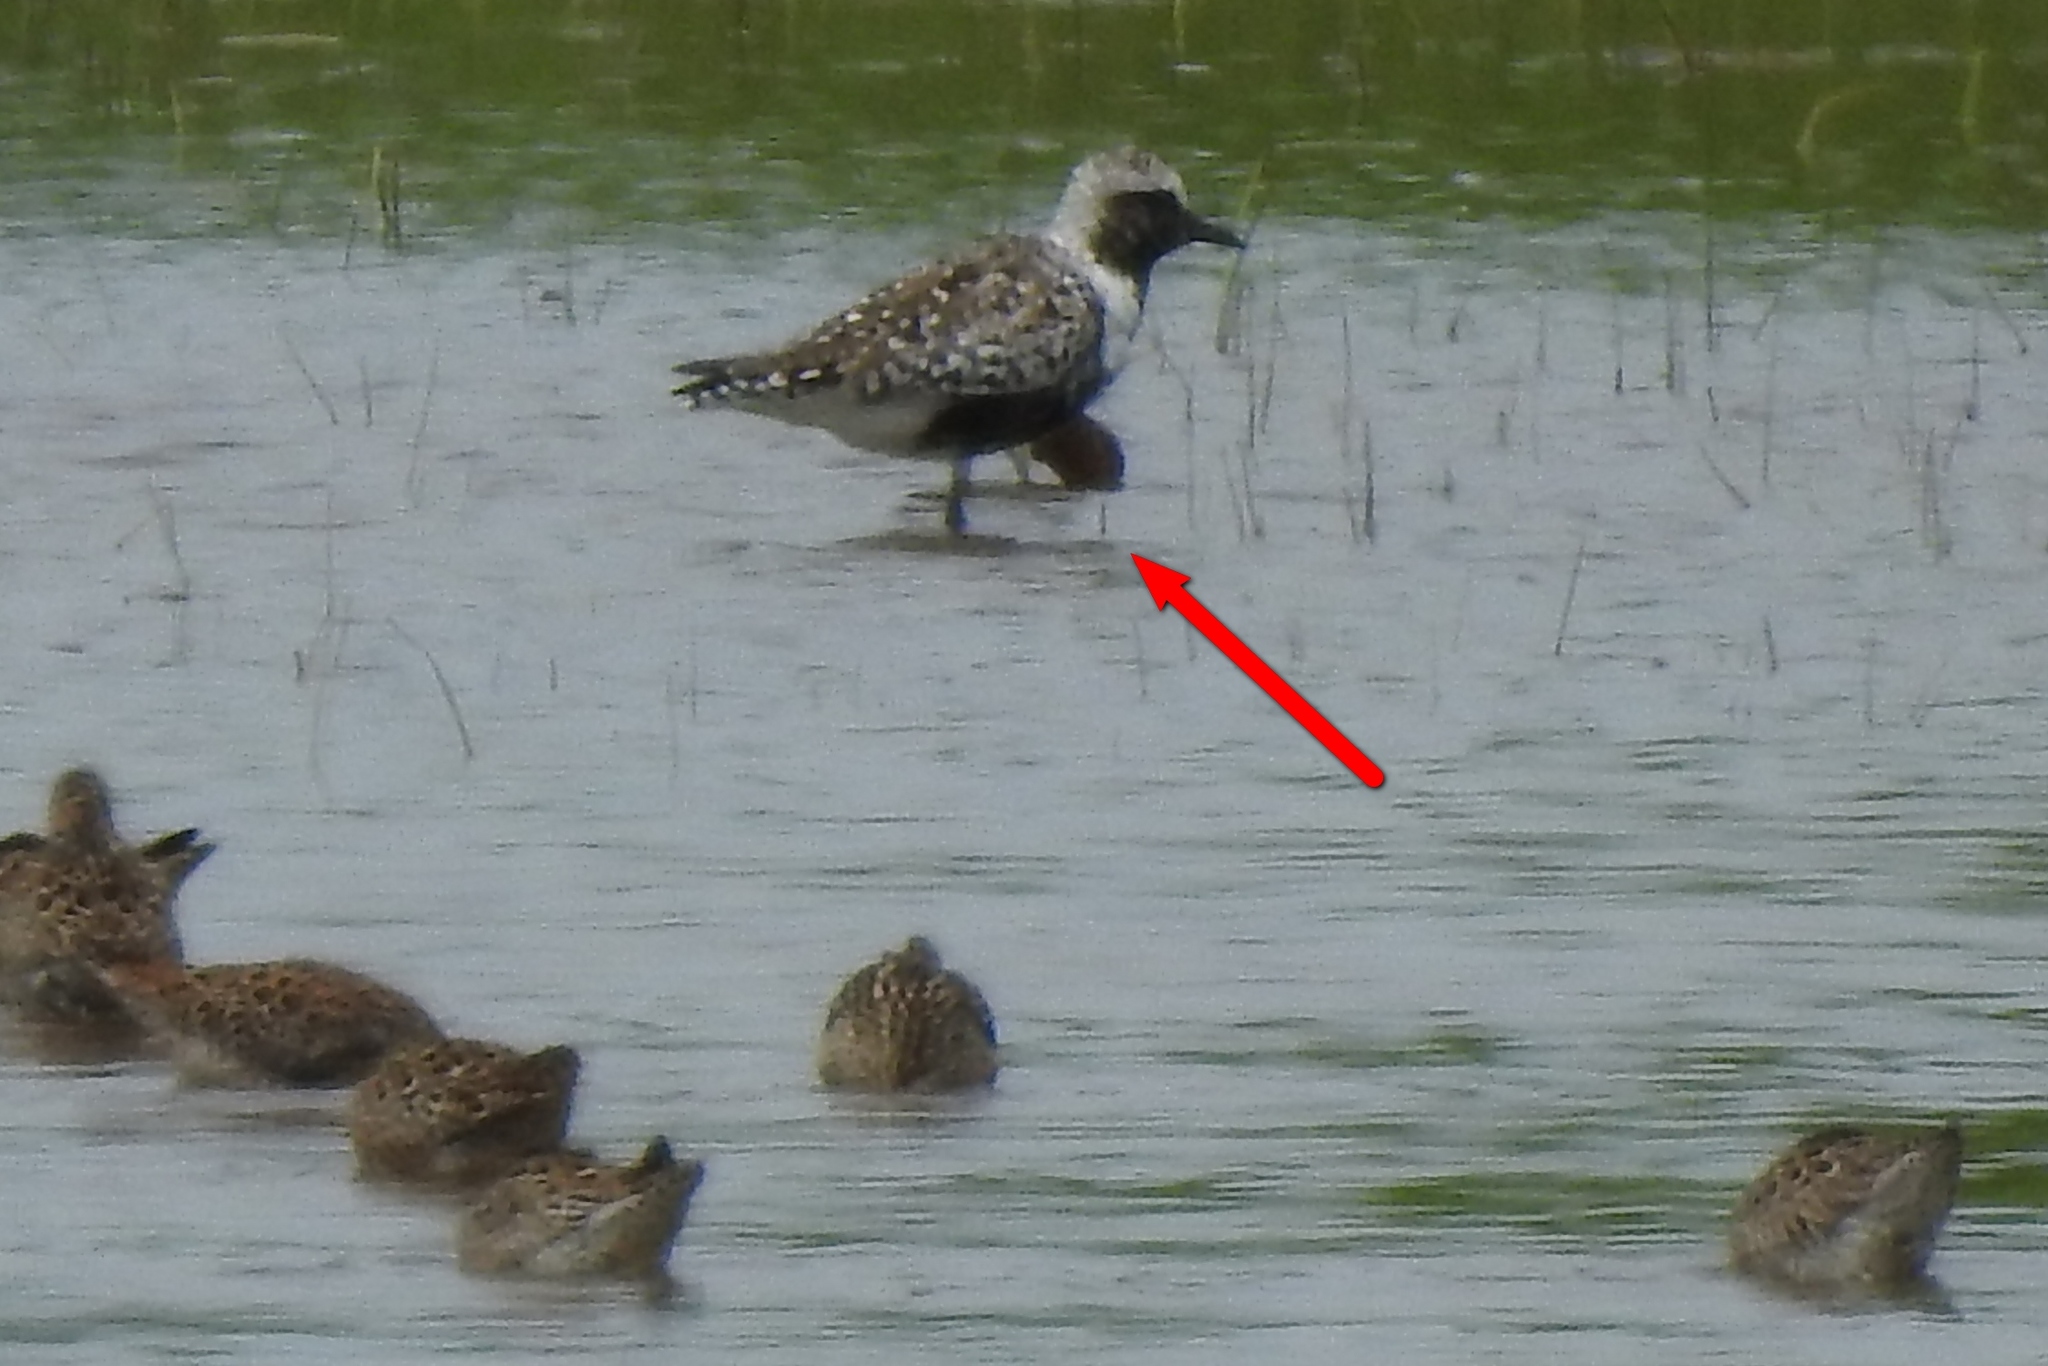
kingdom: Animalia
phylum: Chordata
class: Aves
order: Charadriiformes
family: Charadriidae
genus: Pluvialis
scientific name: Pluvialis squatarola
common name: Grey plover
